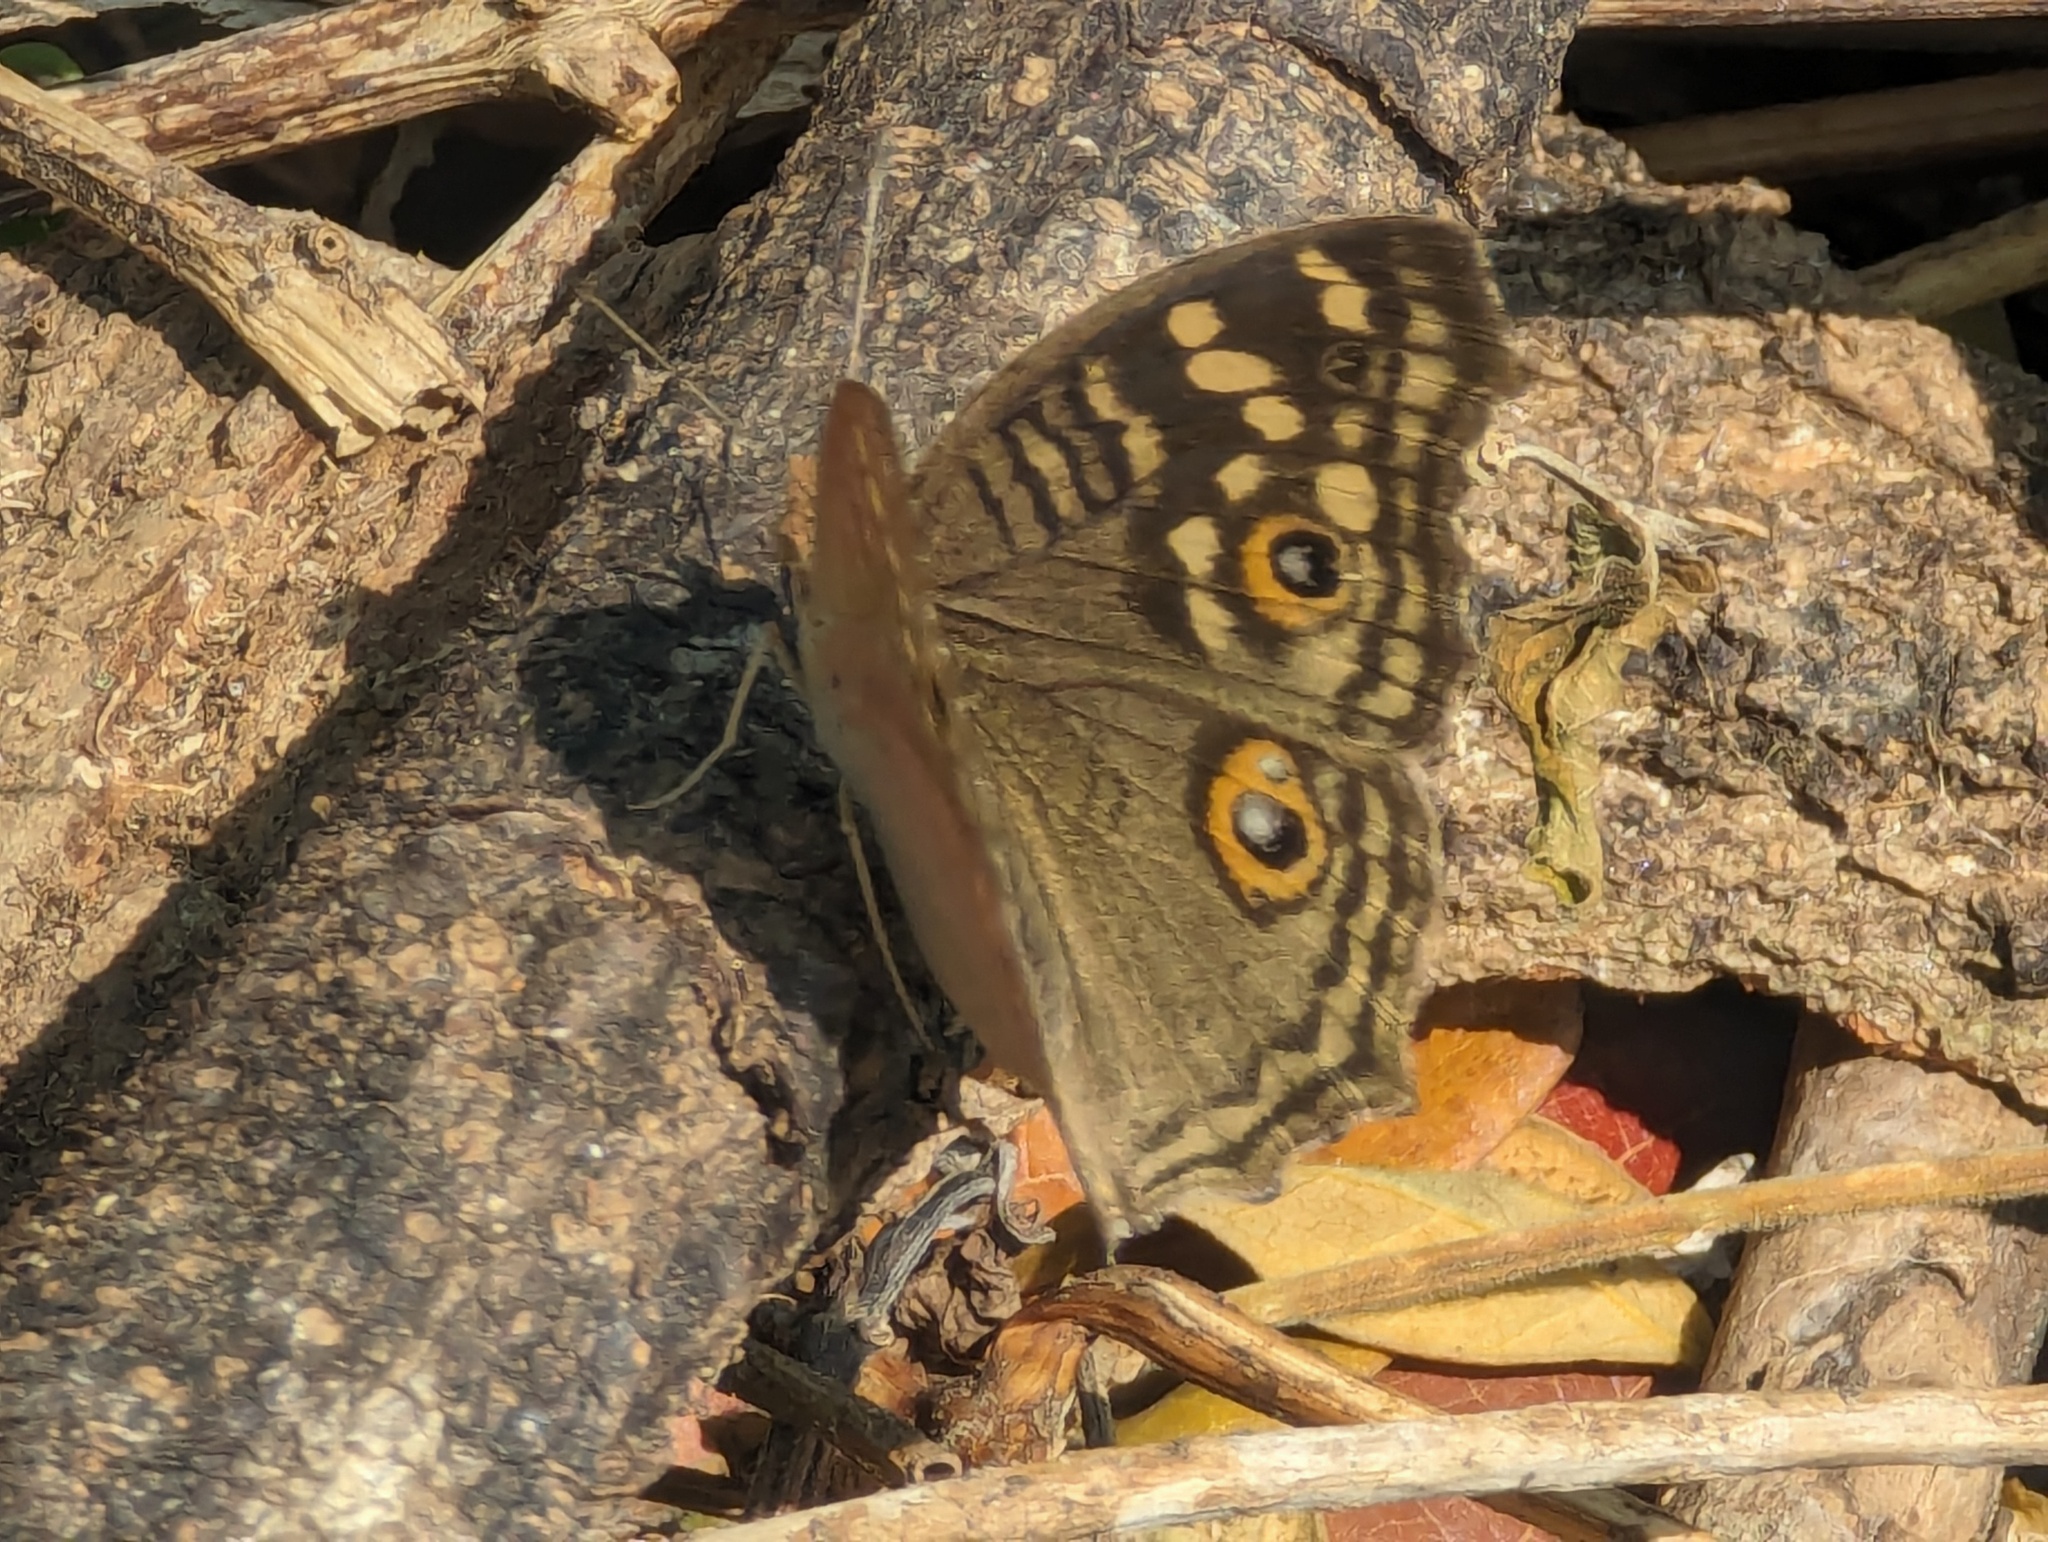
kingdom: Animalia
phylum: Arthropoda
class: Insecta
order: Lepidoptera
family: Nymphalidae
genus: Junonia
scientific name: Junonia lemonias
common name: Lemon pansy
